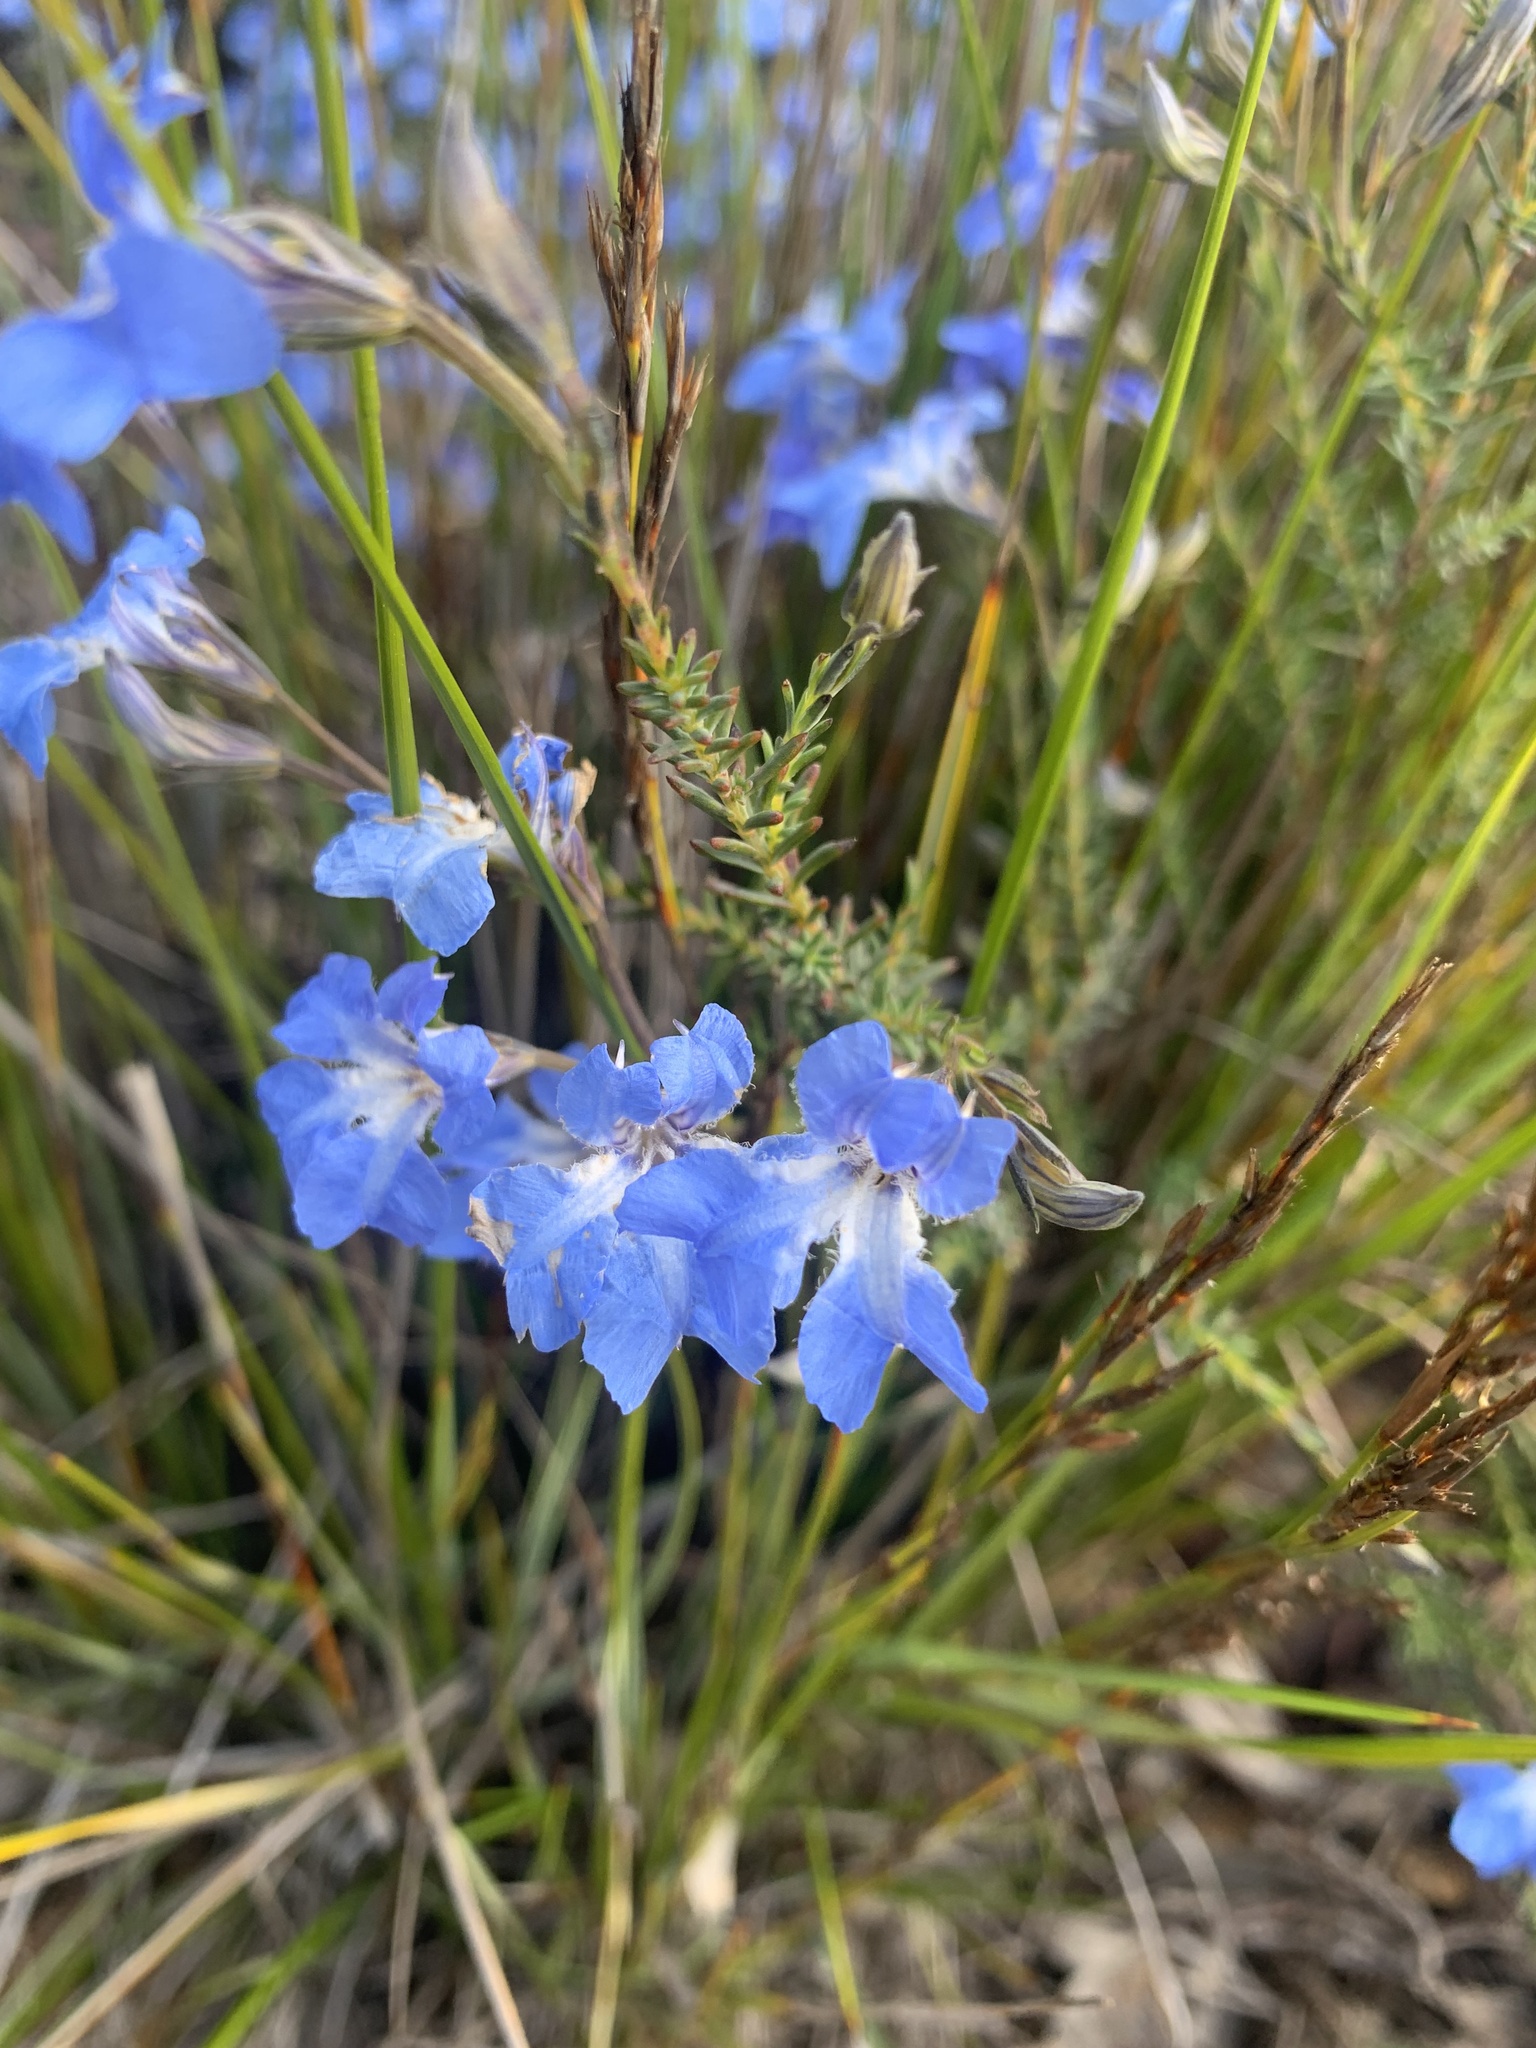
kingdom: Plantae
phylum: Tracheophyta
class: Magnoliopsida
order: Asterales
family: Goodeniaceae
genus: Lechenaultia
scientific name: Lechenaultia biloba
